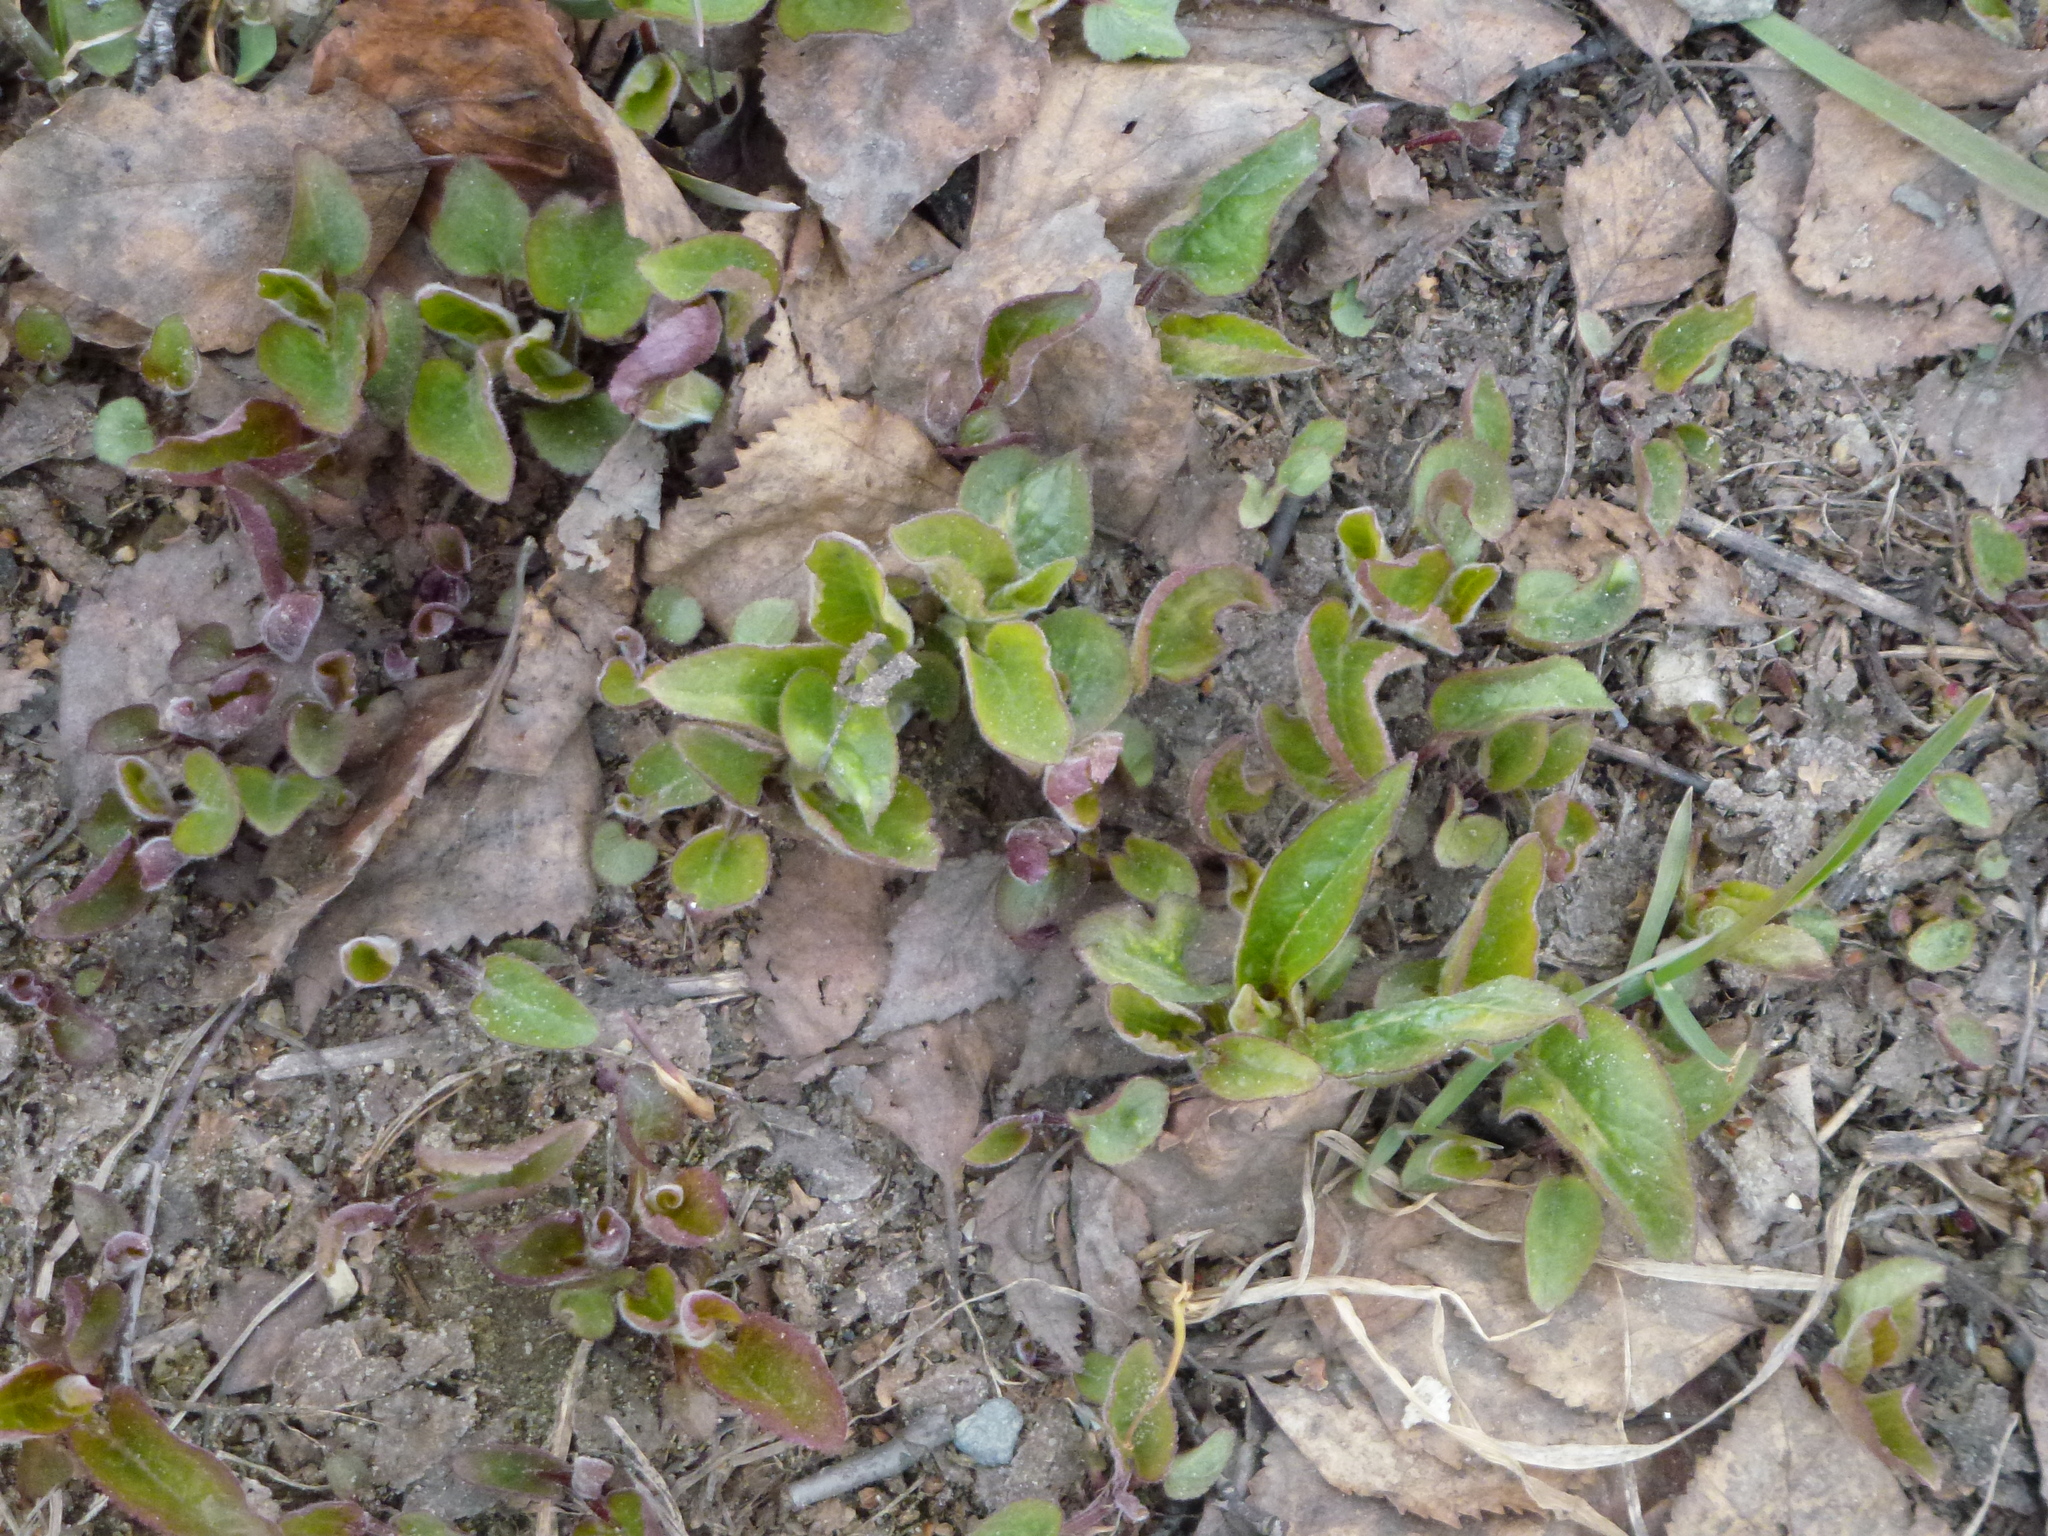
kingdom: Plantae
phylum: Tracheophyta
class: Magnoliopsida
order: Asterales
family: Campanulaceae
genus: Campanula
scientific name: Campanula rapunculoides
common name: Creeping bellflower
